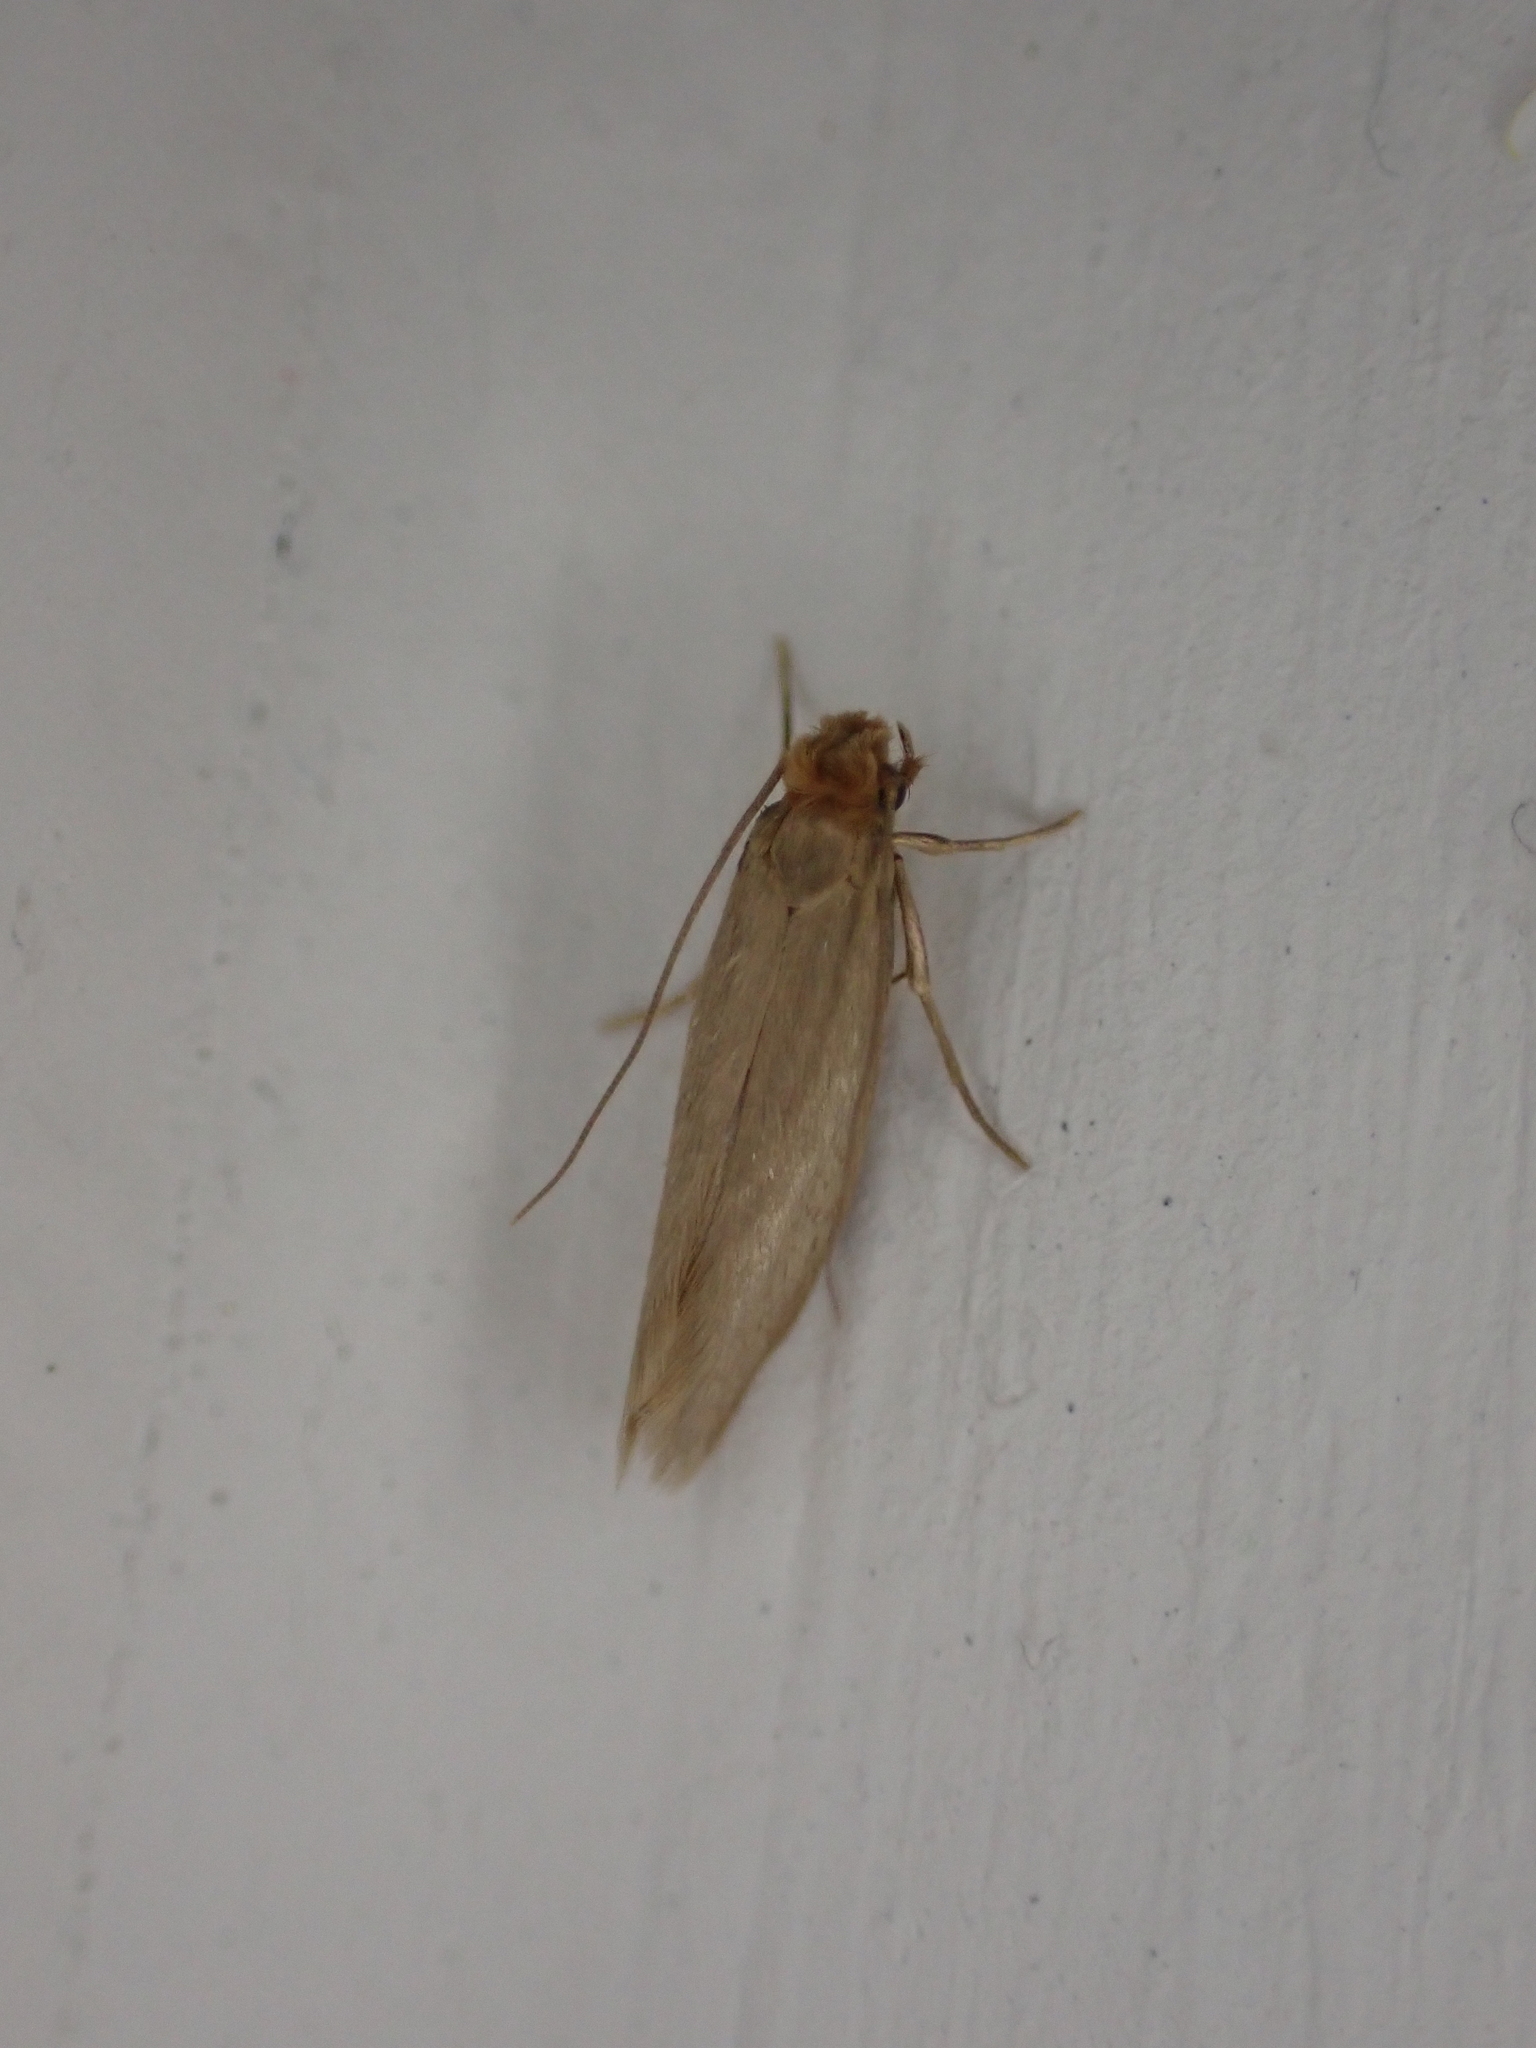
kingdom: Animalia
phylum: Arthropoda
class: Insecta
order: Lepidoptera
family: Tineidae
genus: Tineola
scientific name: Tineola bisselliella
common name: Webbing clothes moth
